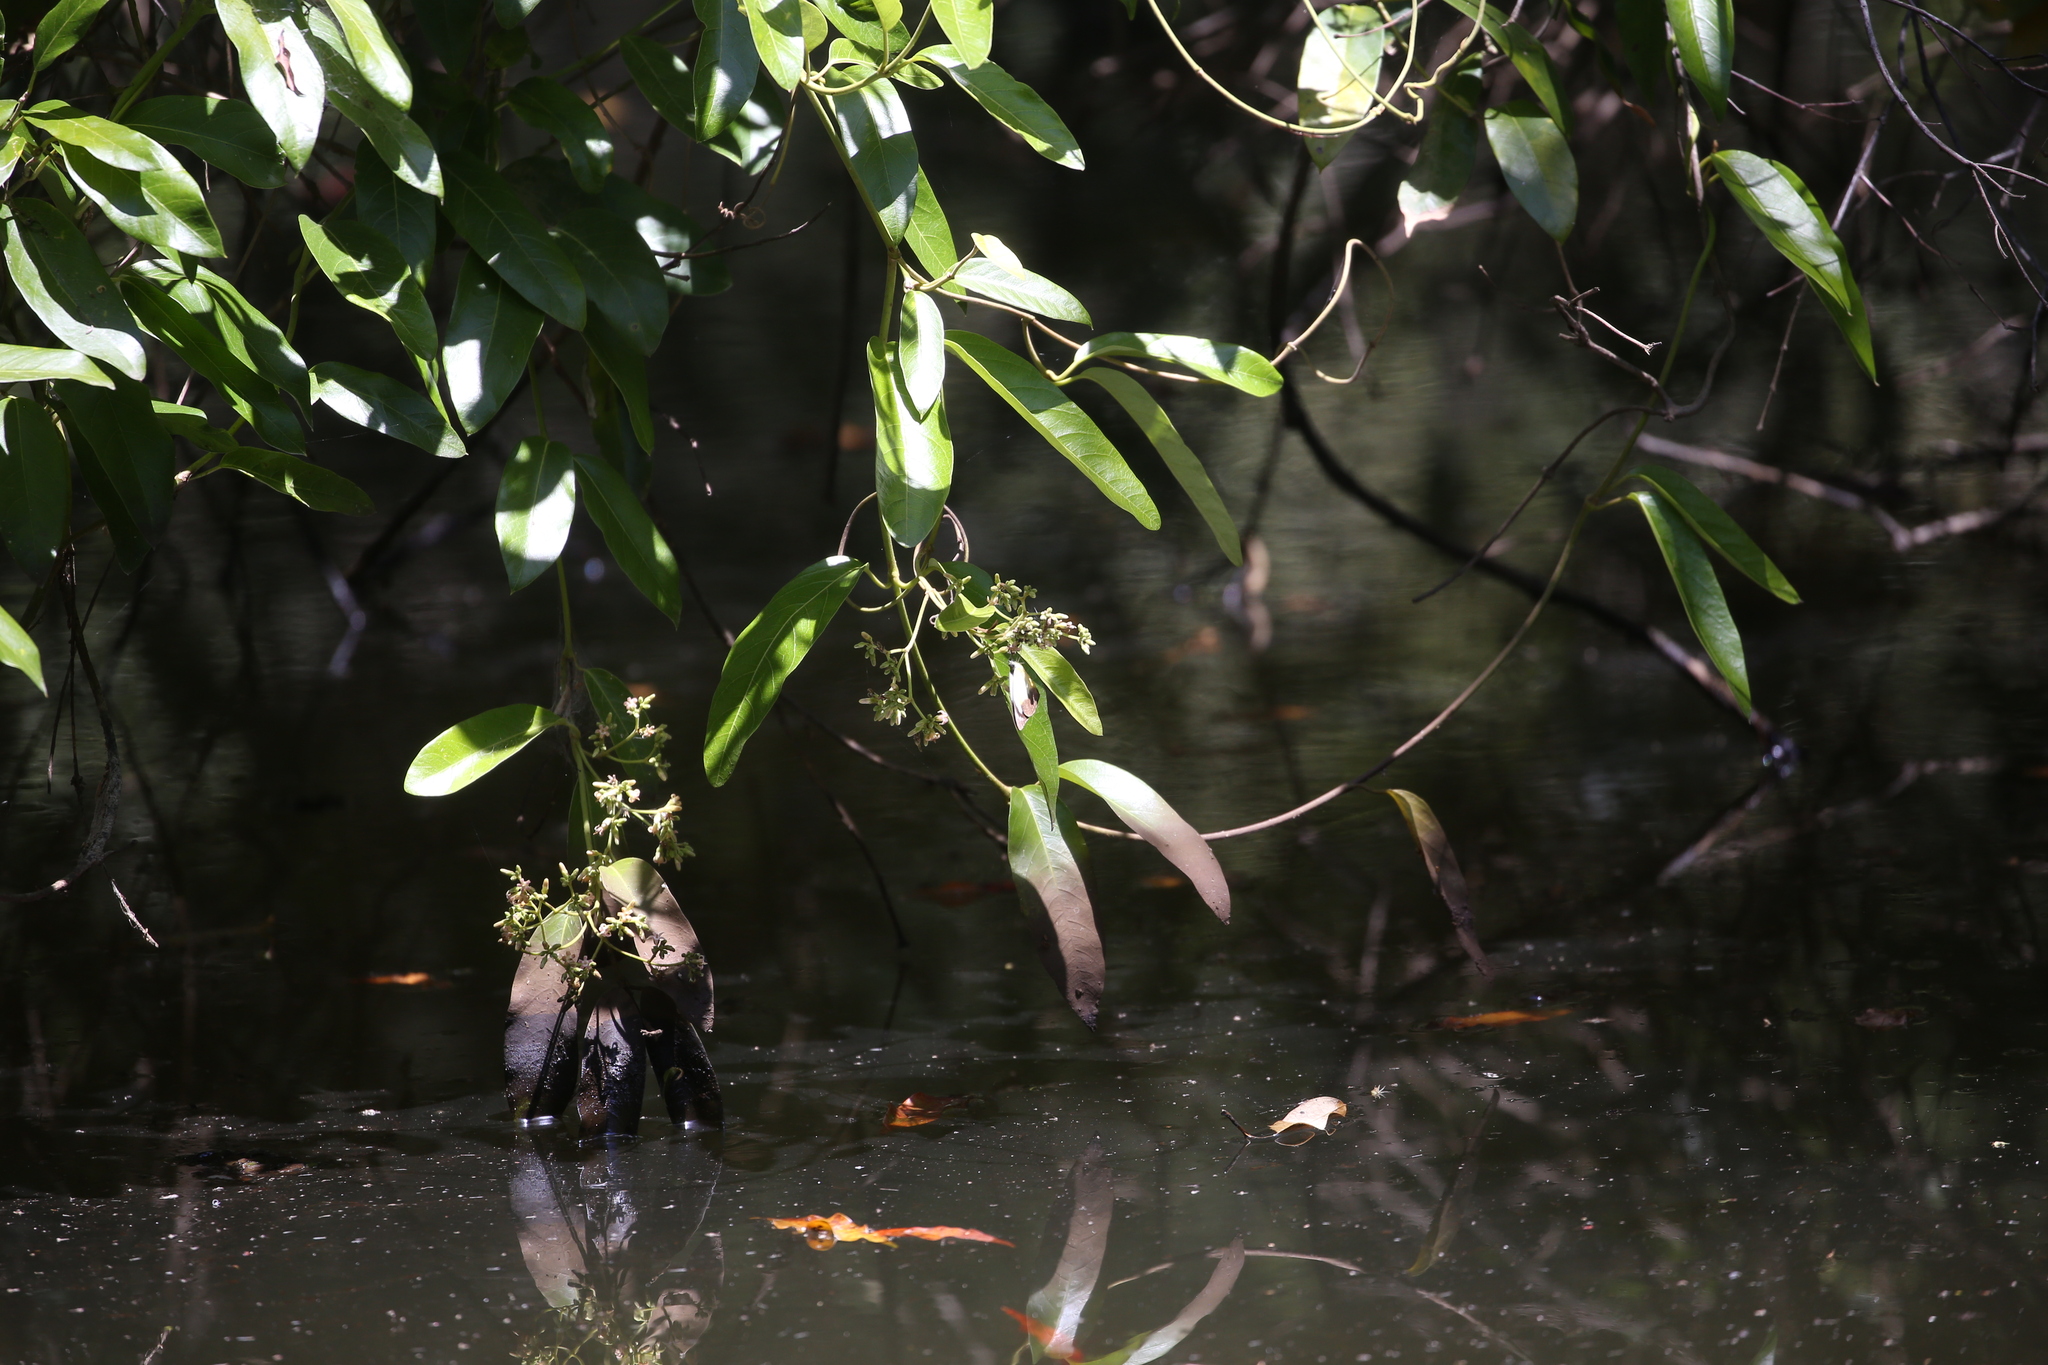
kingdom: Animalia
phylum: Arthropoda
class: Insecta
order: Lepidoptera
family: Pieridae
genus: Appias
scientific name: Appias paulina
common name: Ceylon lesser albatross
